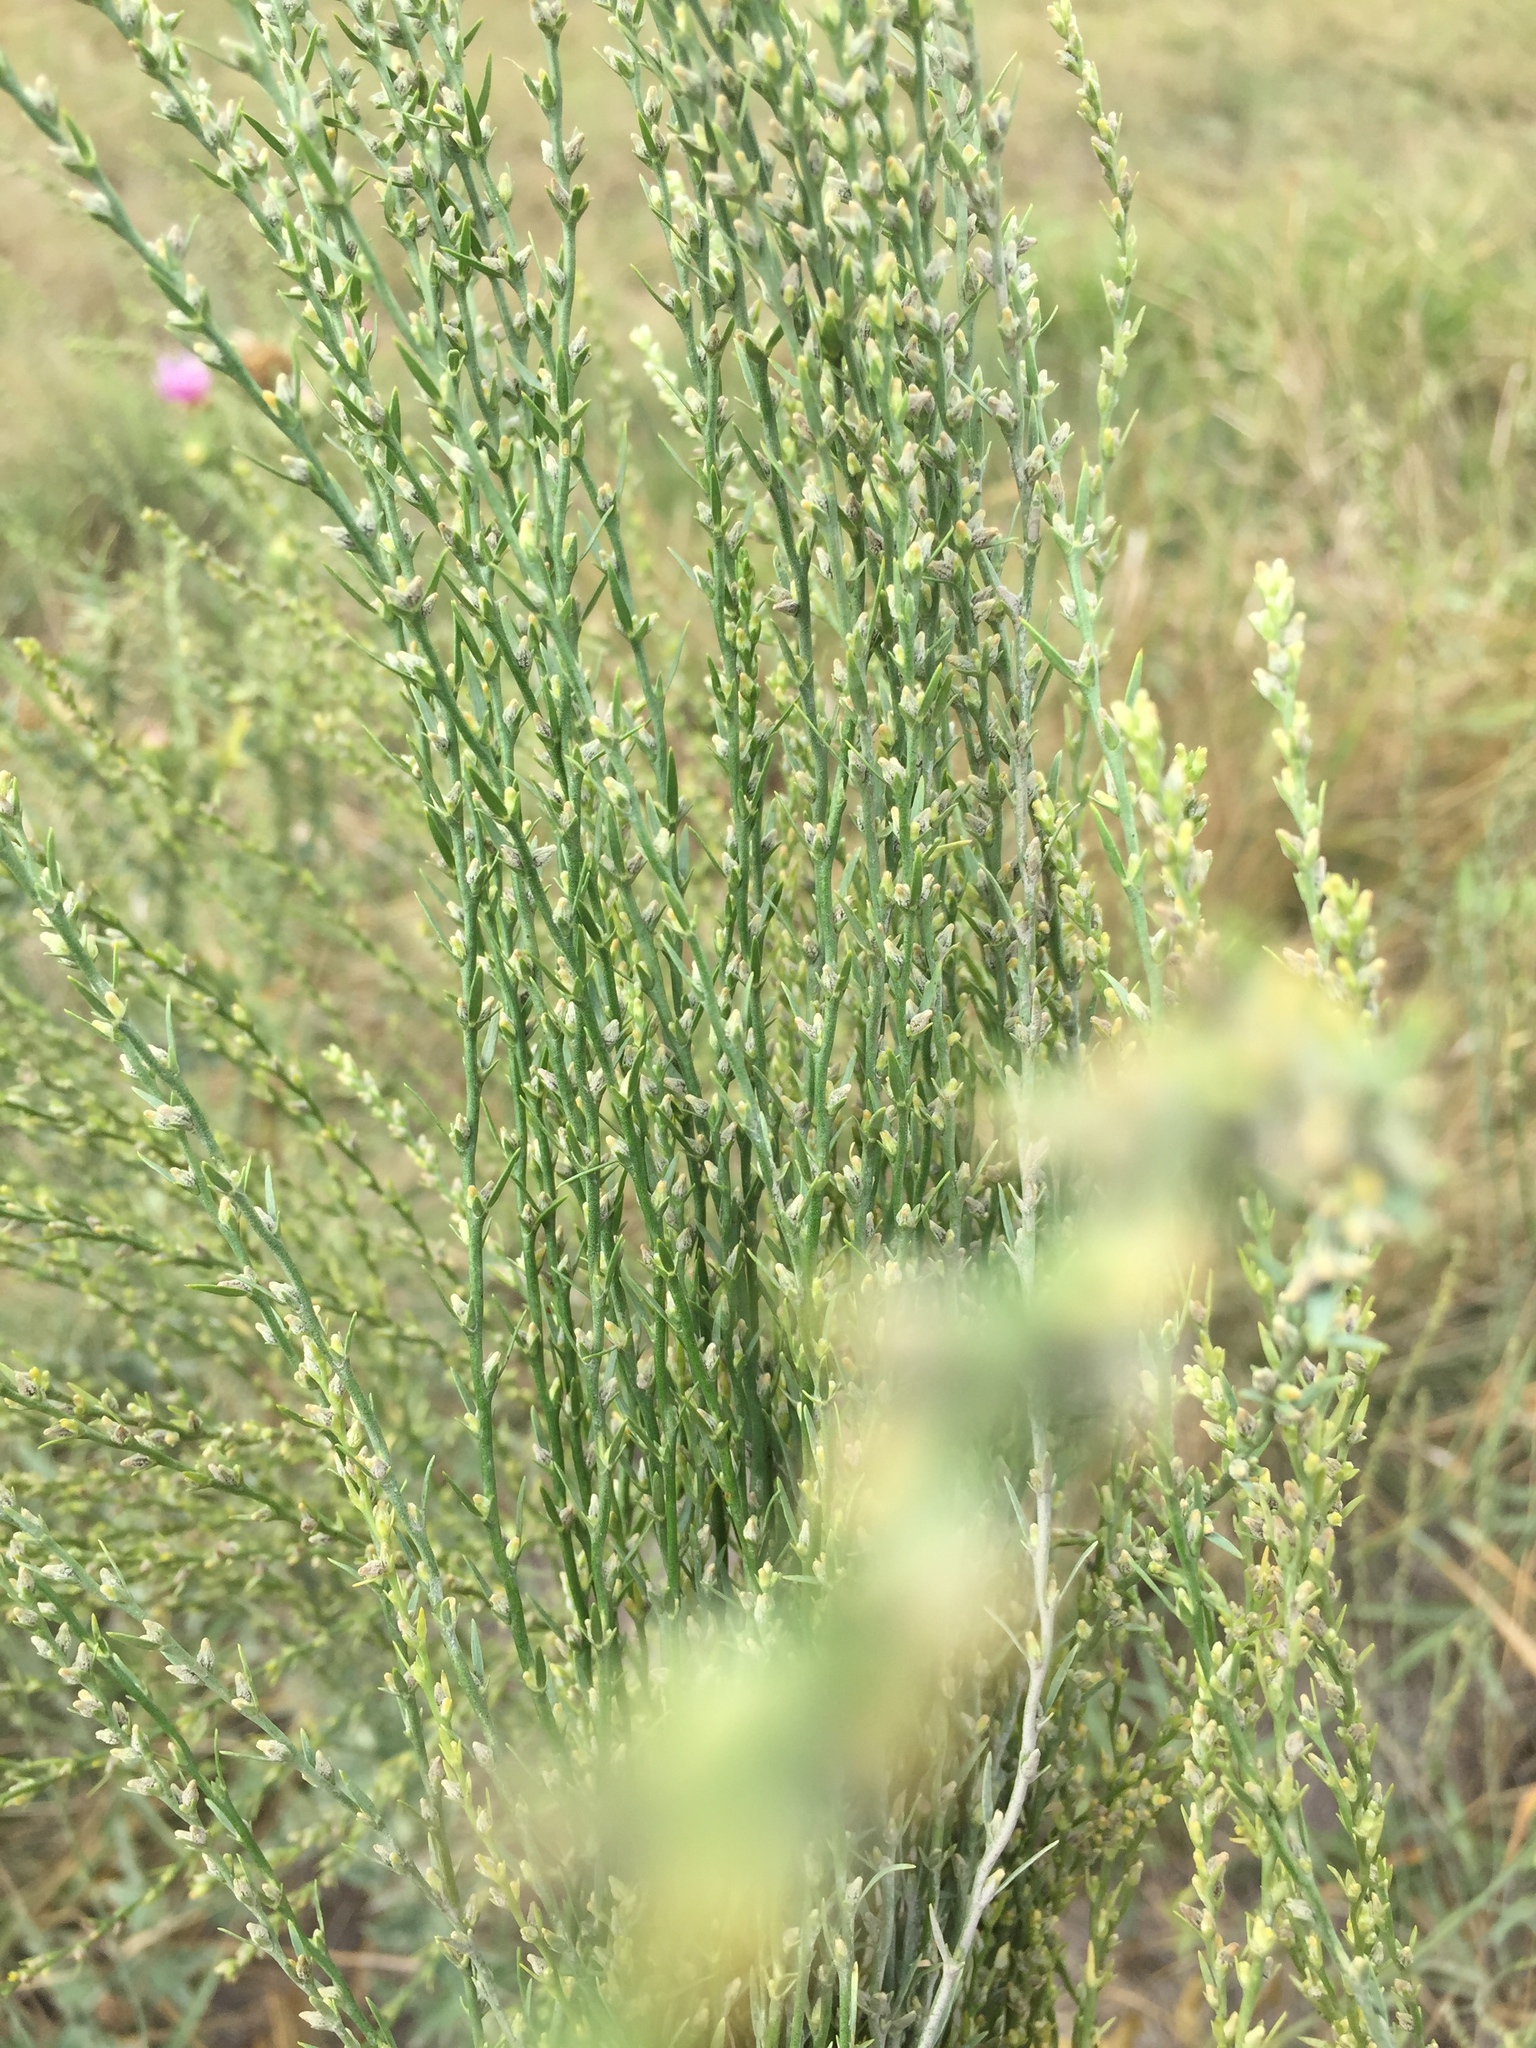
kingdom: Plantae
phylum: Tracheophyta
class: Magnoliopsida
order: Malvales
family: Thymelaeaceae
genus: Thymelaea
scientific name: Thymelaea passerina
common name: Annual thymelaea
